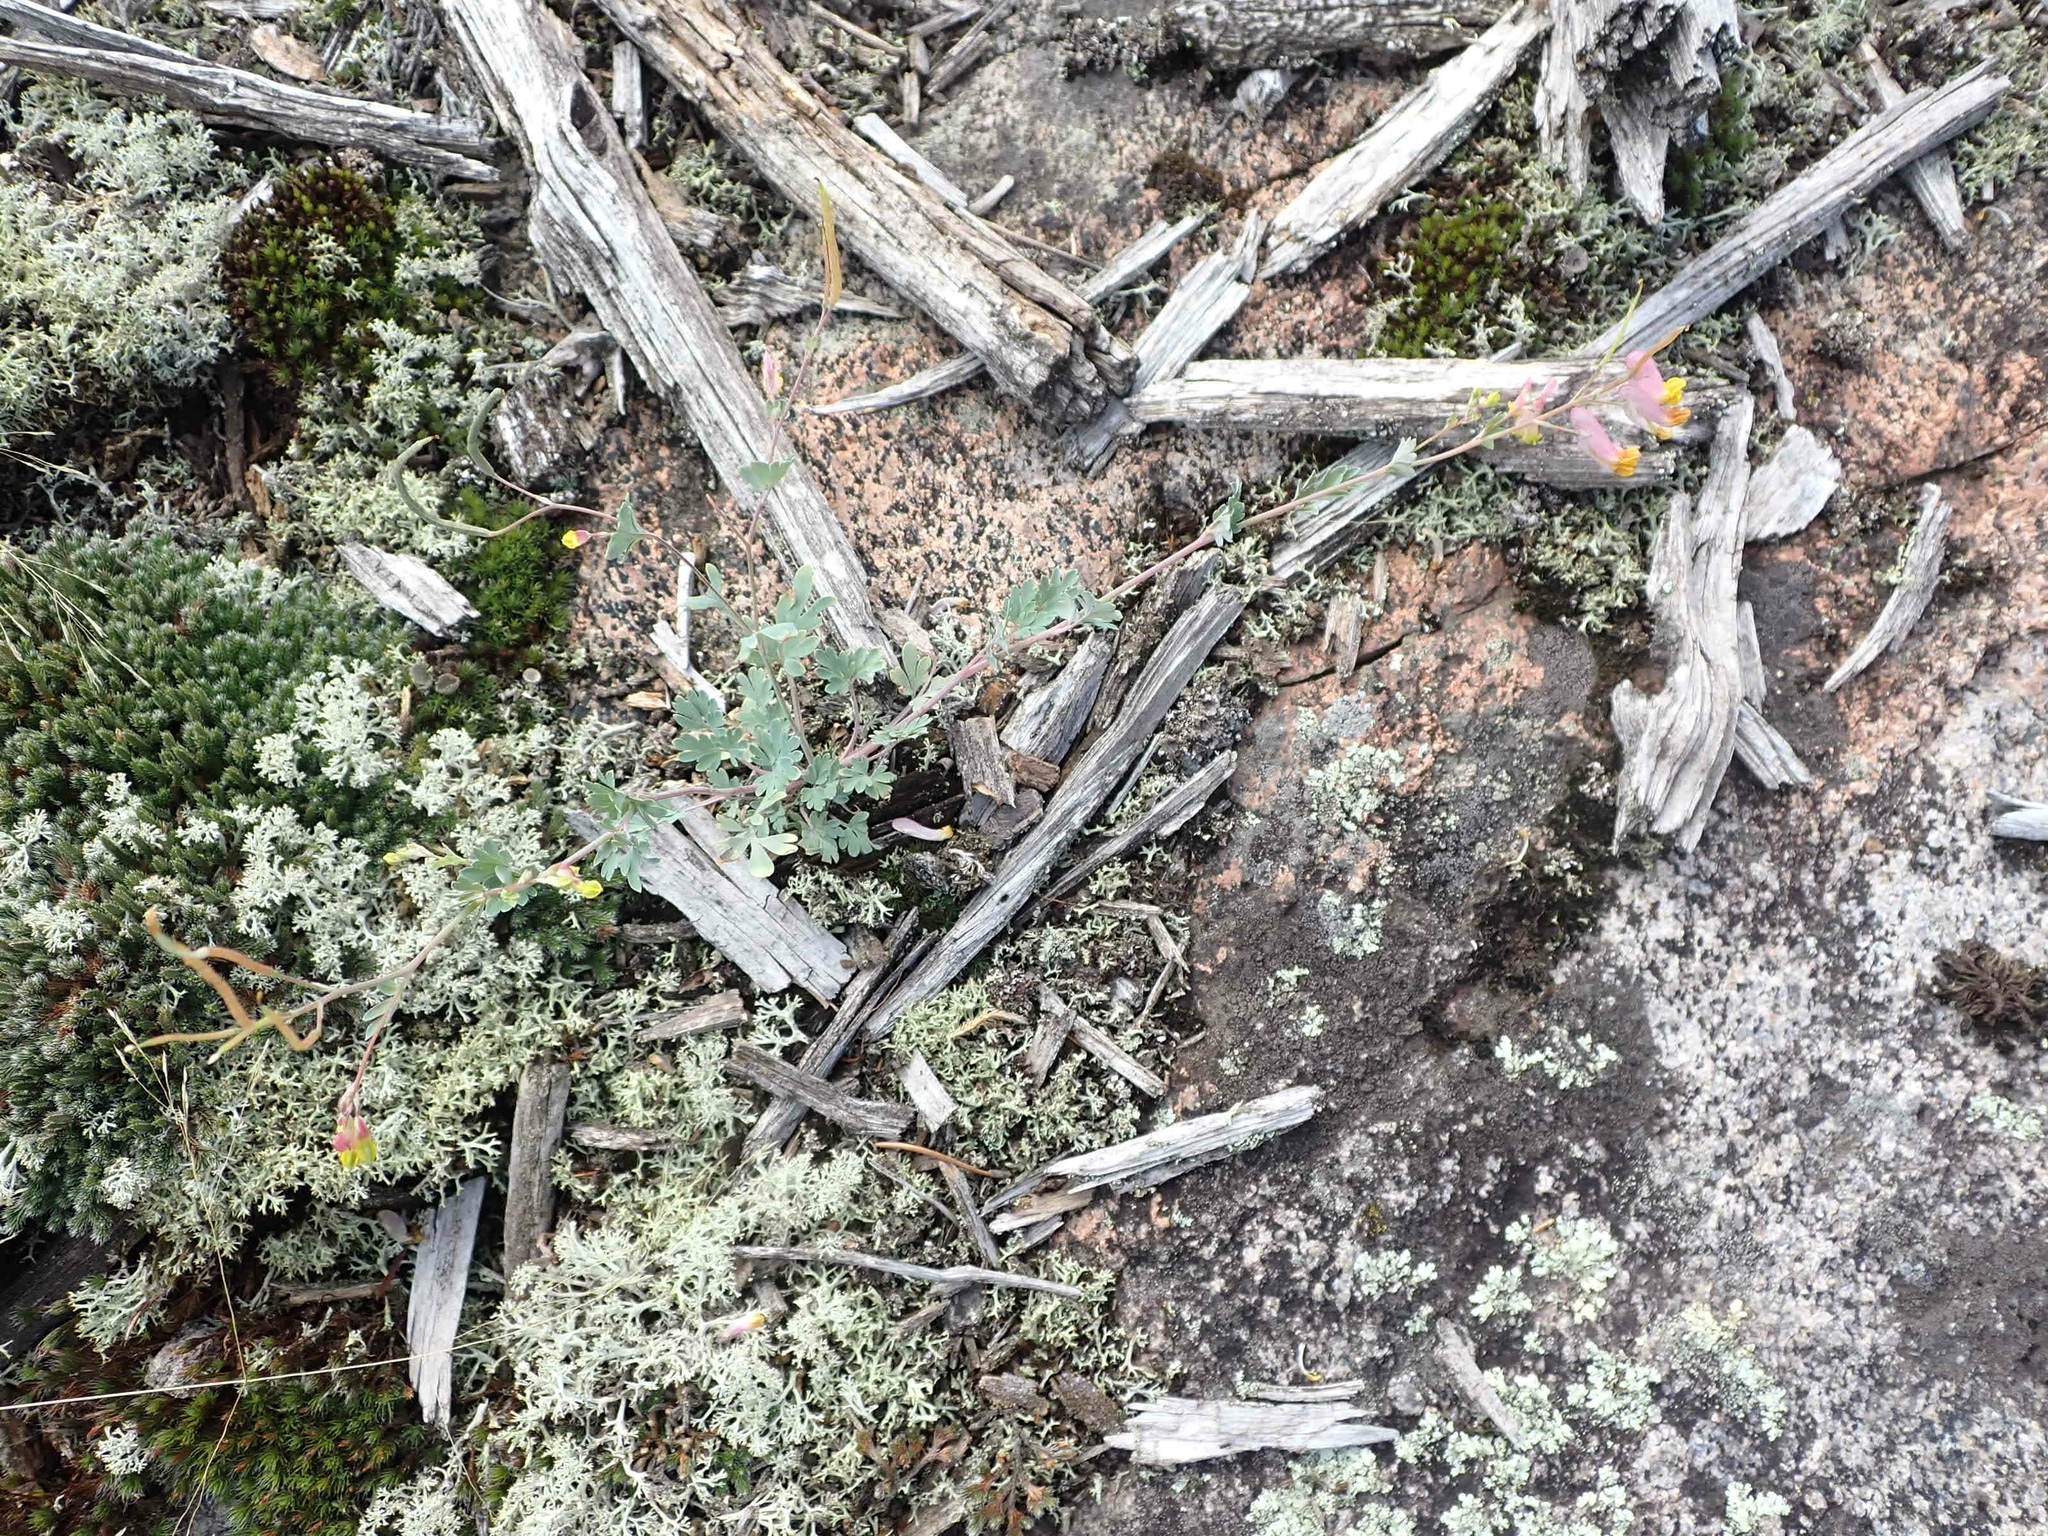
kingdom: Plantae
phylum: Tracheophyta
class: Magnoliopsida
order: Ranunculales
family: Papaveraceae
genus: Capnoides
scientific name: Capnoides sempervirens
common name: Rock harlequin
